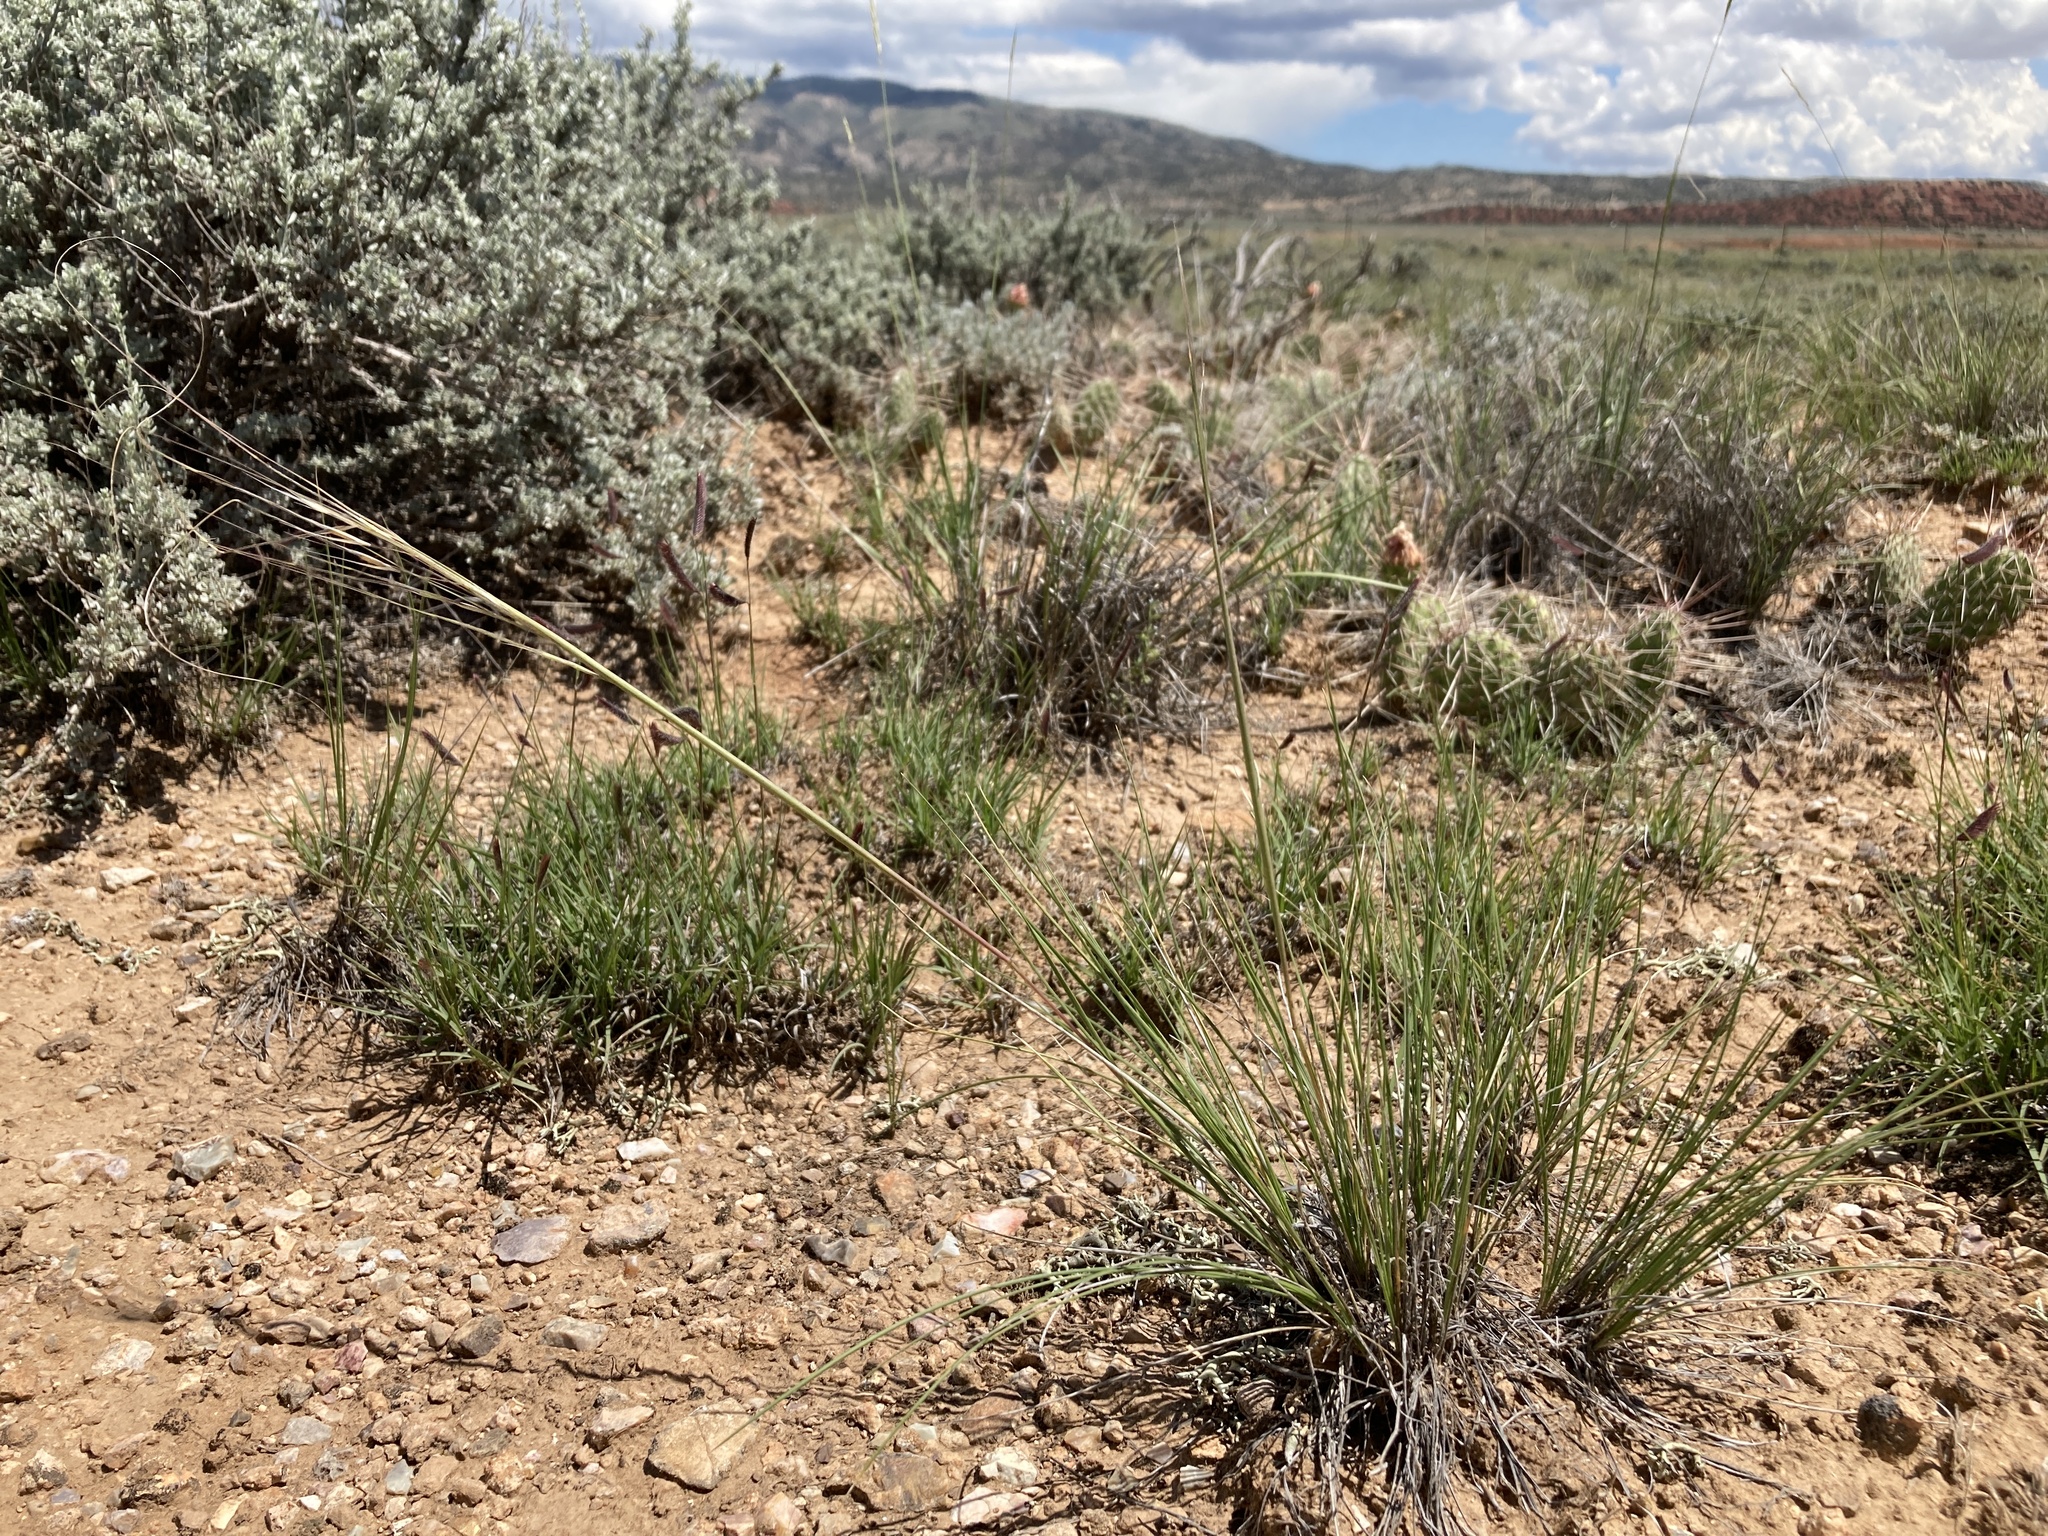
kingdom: Plantae
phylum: Tracheophyta
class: Liliopsida
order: Poales
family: Poaceae
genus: Hesperostipa
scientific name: Hesperostipa comata
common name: Needle-and-thread grass
